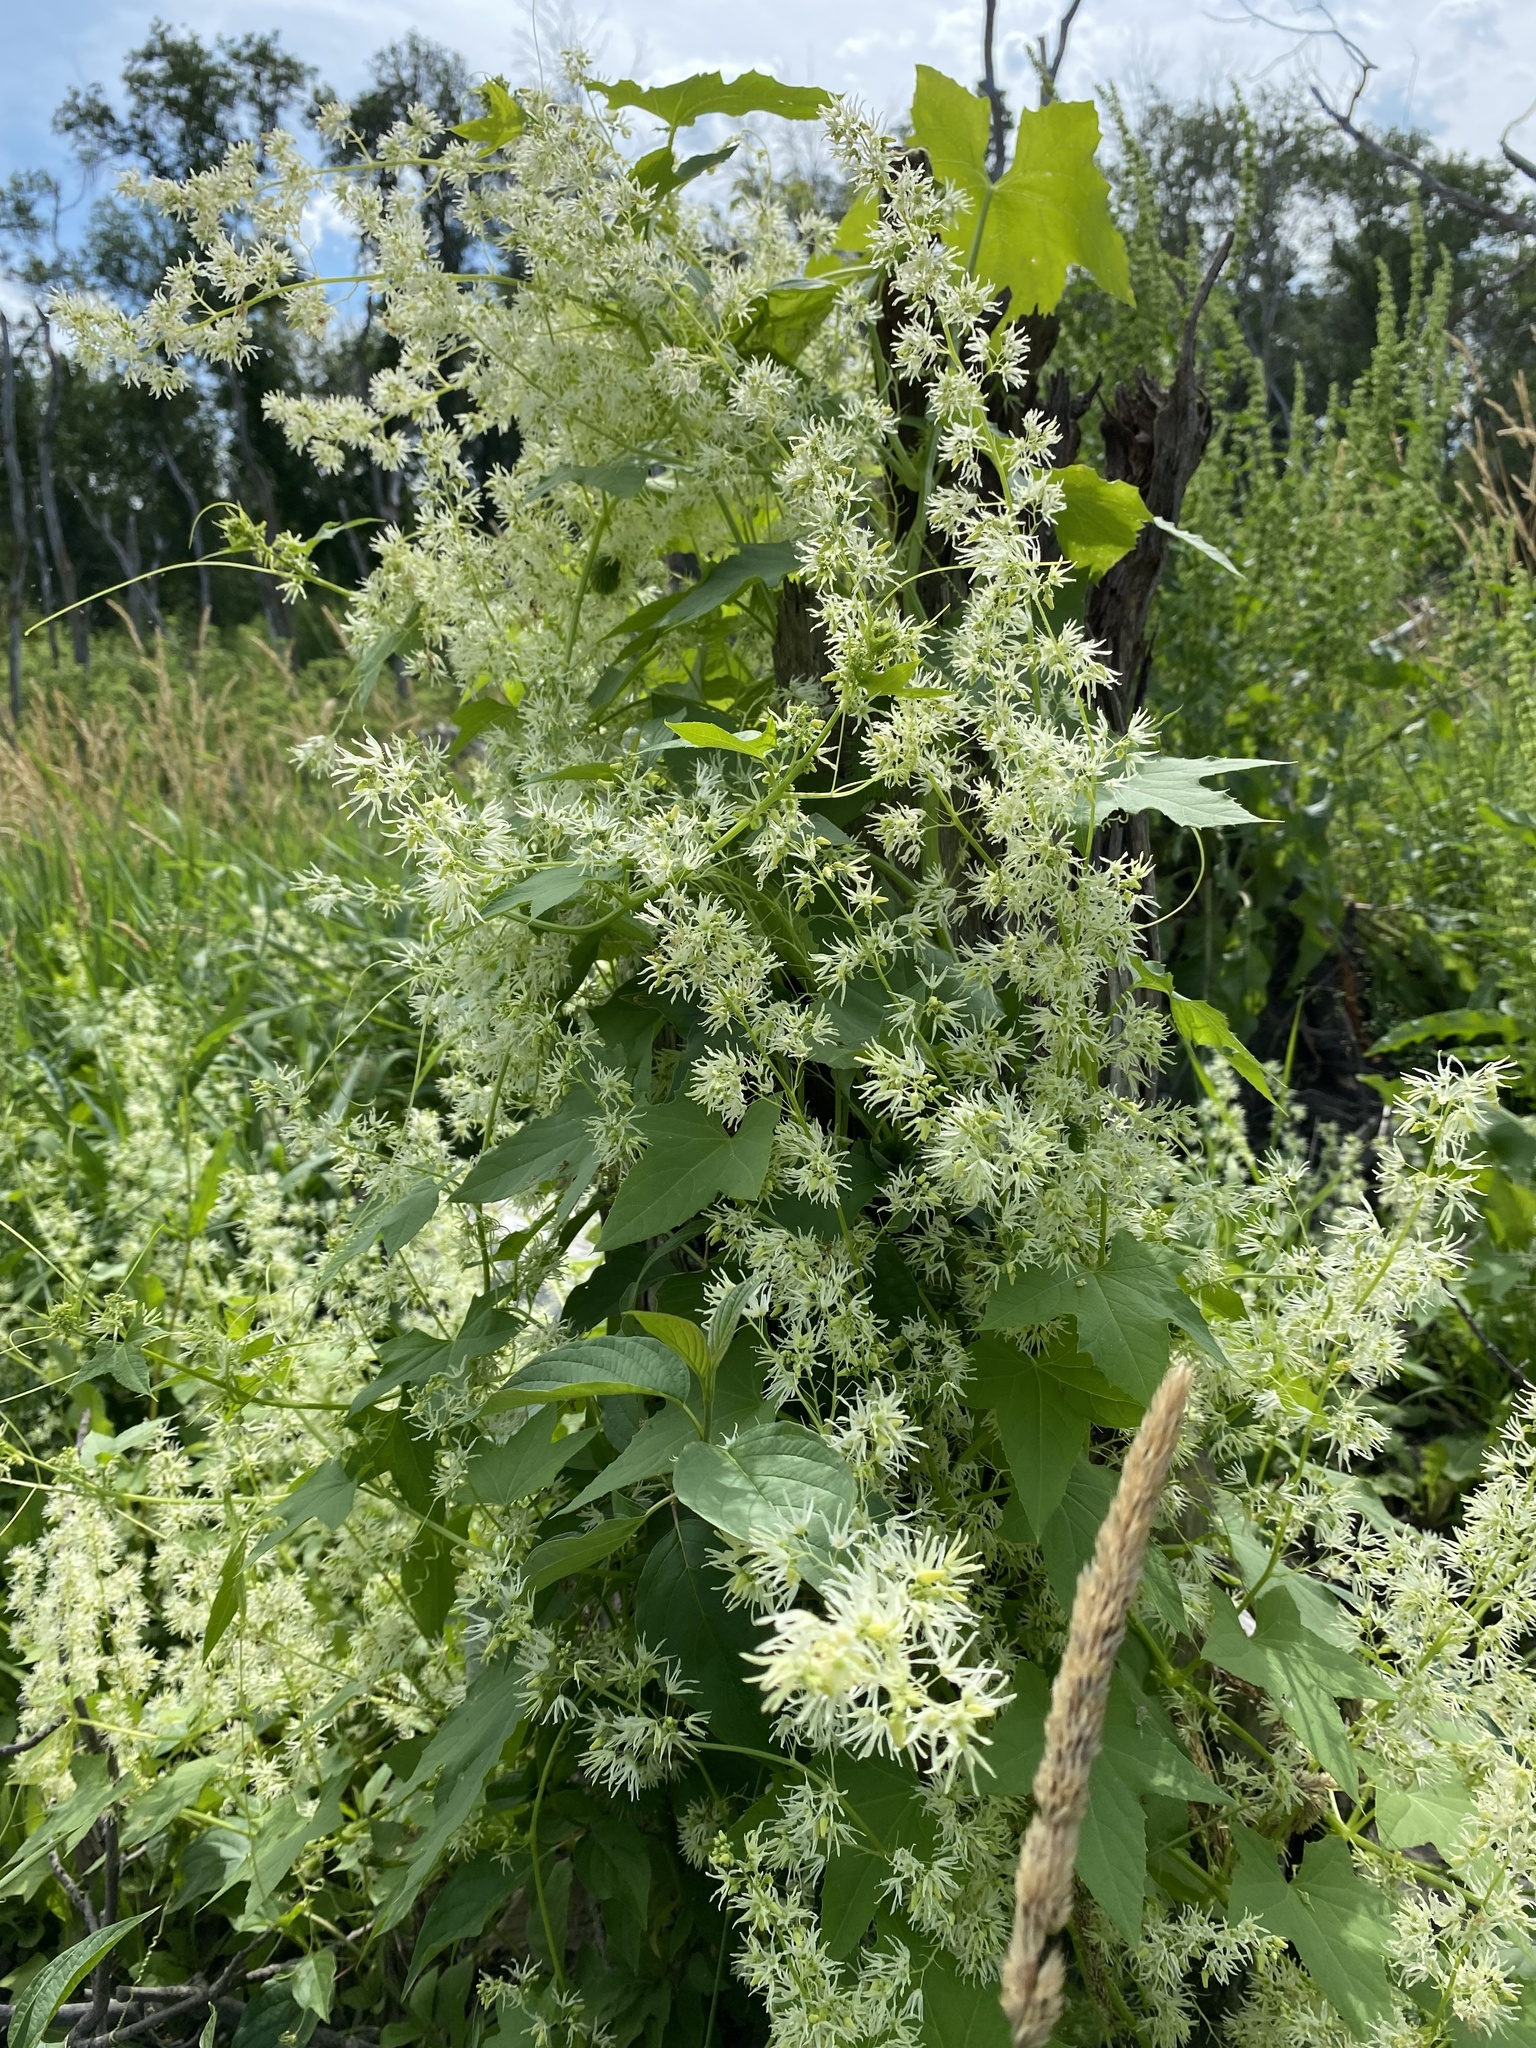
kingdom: Plantae
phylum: Tracheophyta
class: Magnoliopsida
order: Cucurbitales
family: Cucurbitaceae
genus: Echinocystis
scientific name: Echinocystis lobata
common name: Wild cucumber
